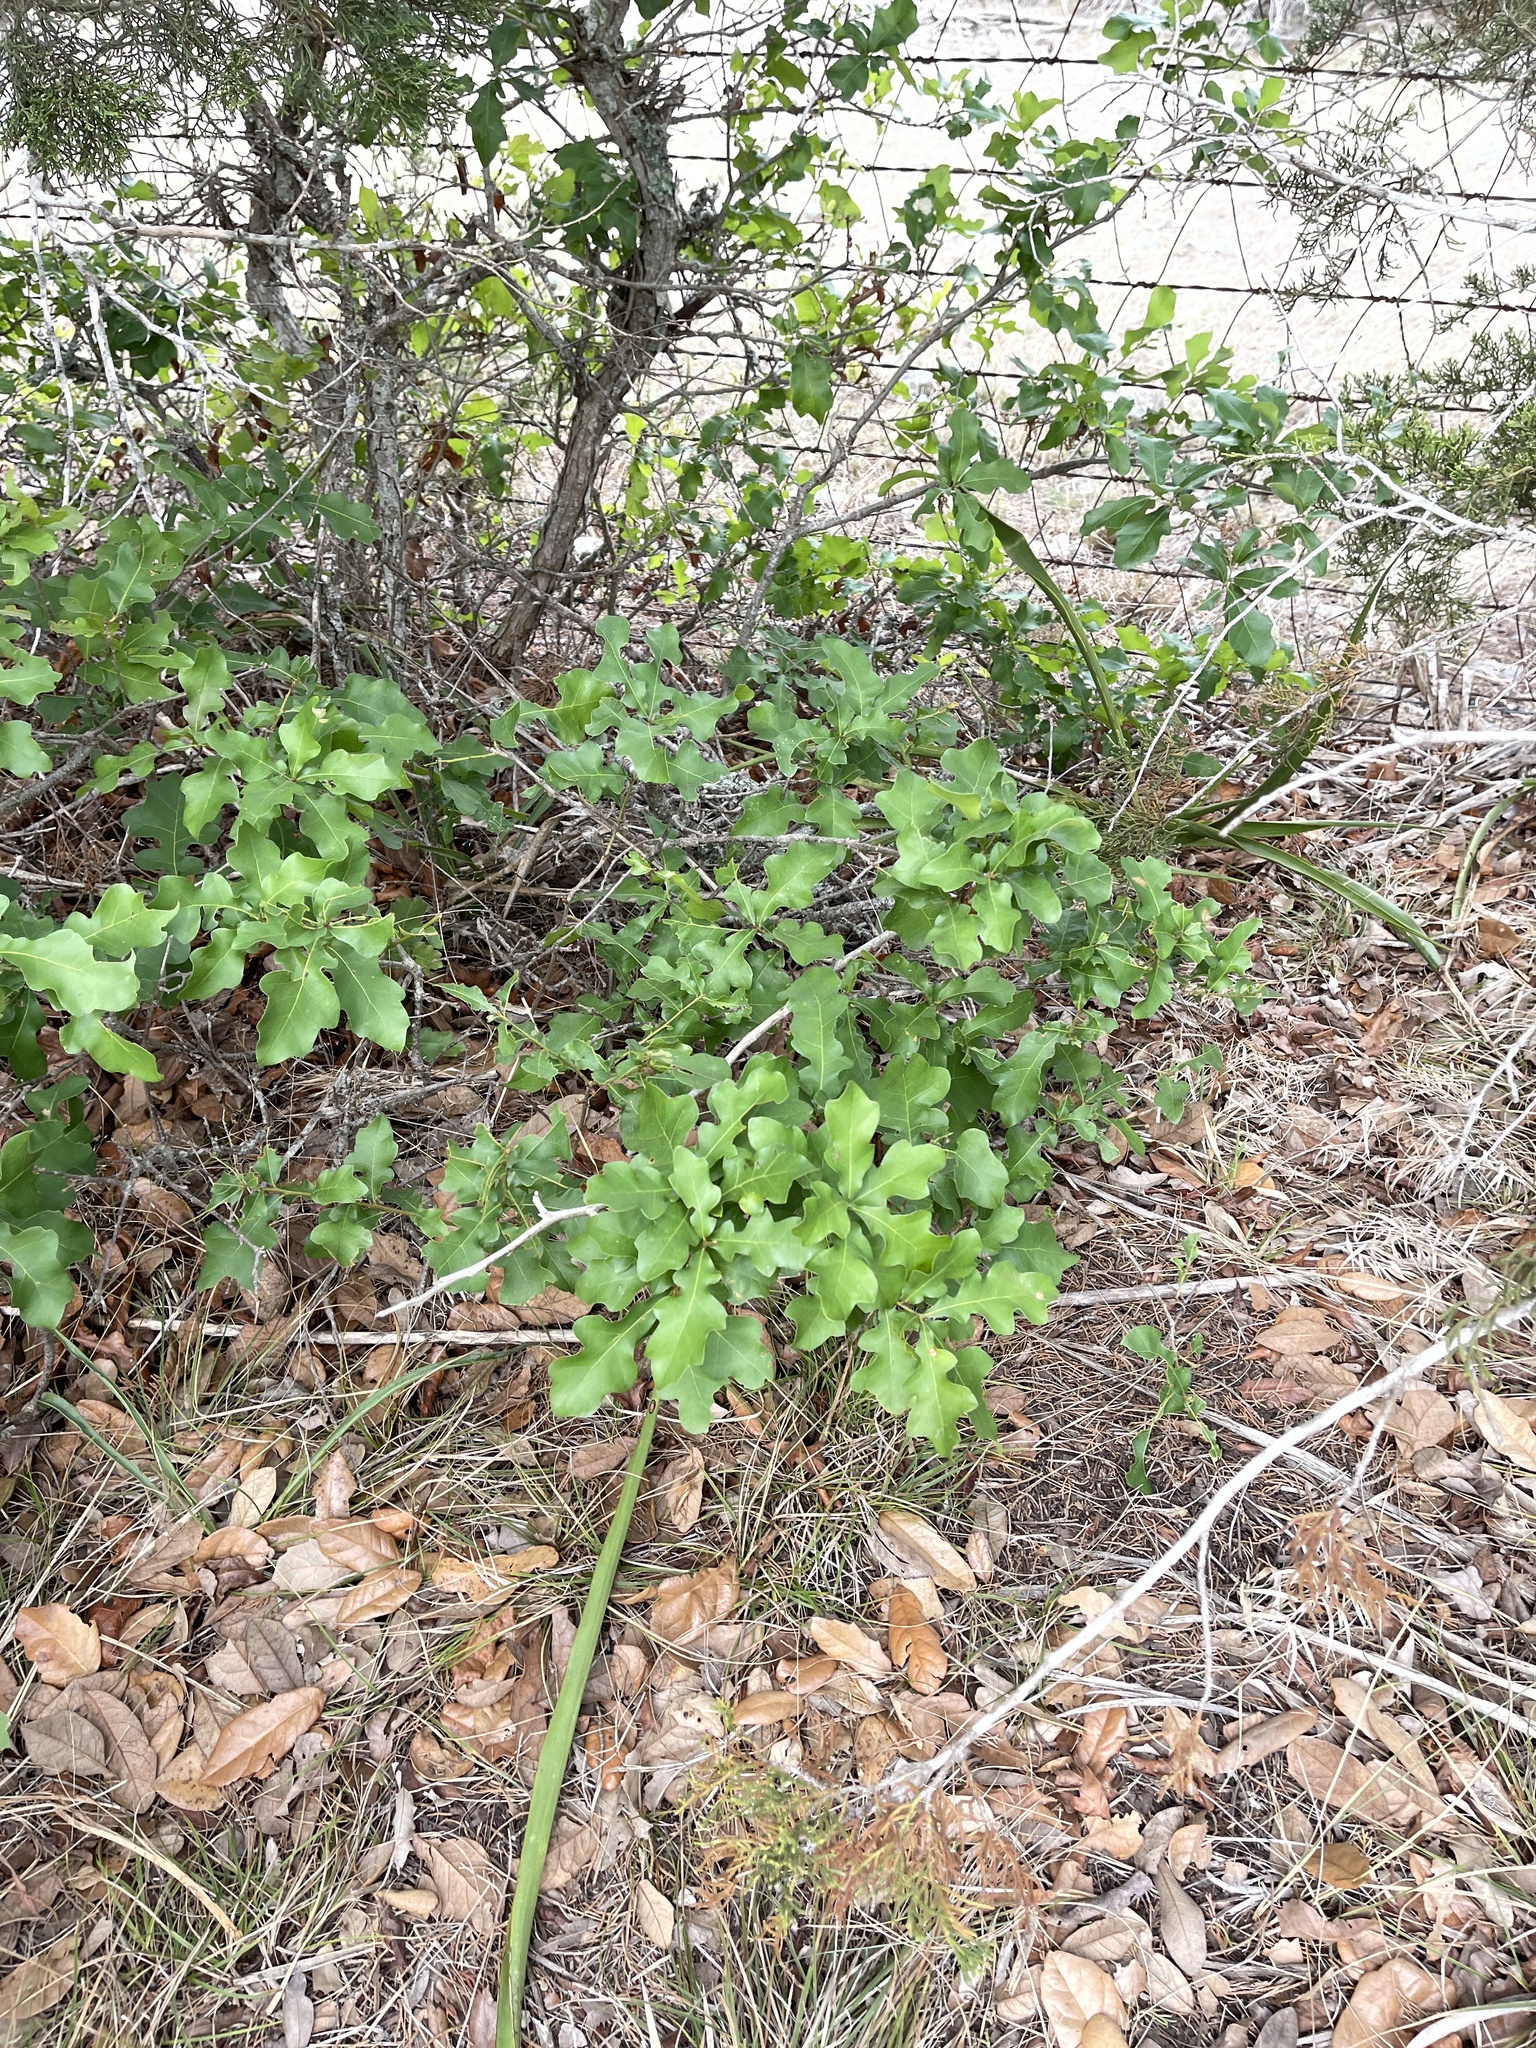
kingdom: Plantae
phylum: Tracheophyta
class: Magnoliopsida
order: Fagales
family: Fagaceae
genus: Quercus
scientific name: Quercus sinuata
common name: Durand oak
